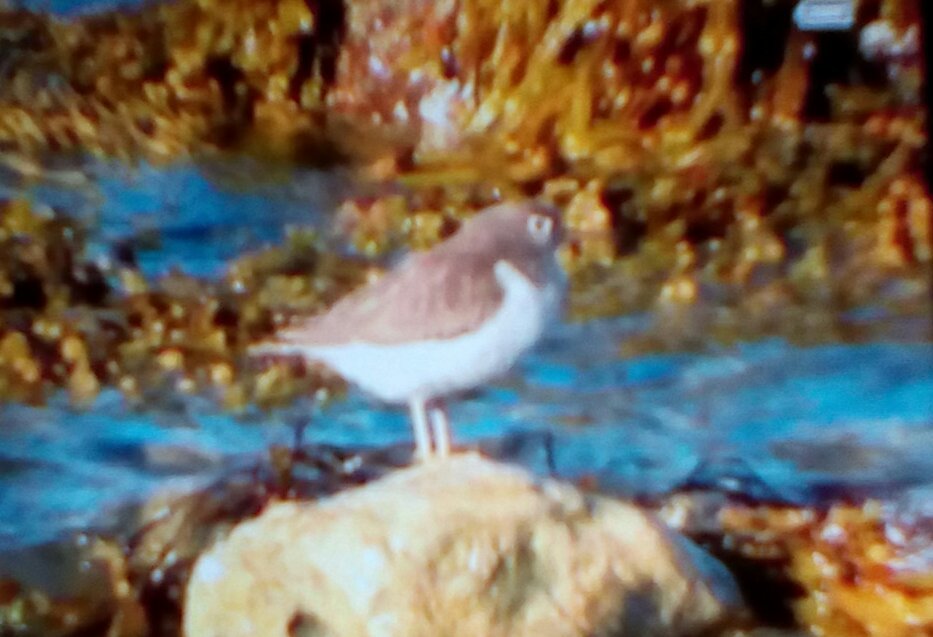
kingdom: Animalia
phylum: Chordata
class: Aves
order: Charadriiformes
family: Scolopacidae
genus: Actitis
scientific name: Actitis macularius
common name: Spotted sandpiper
